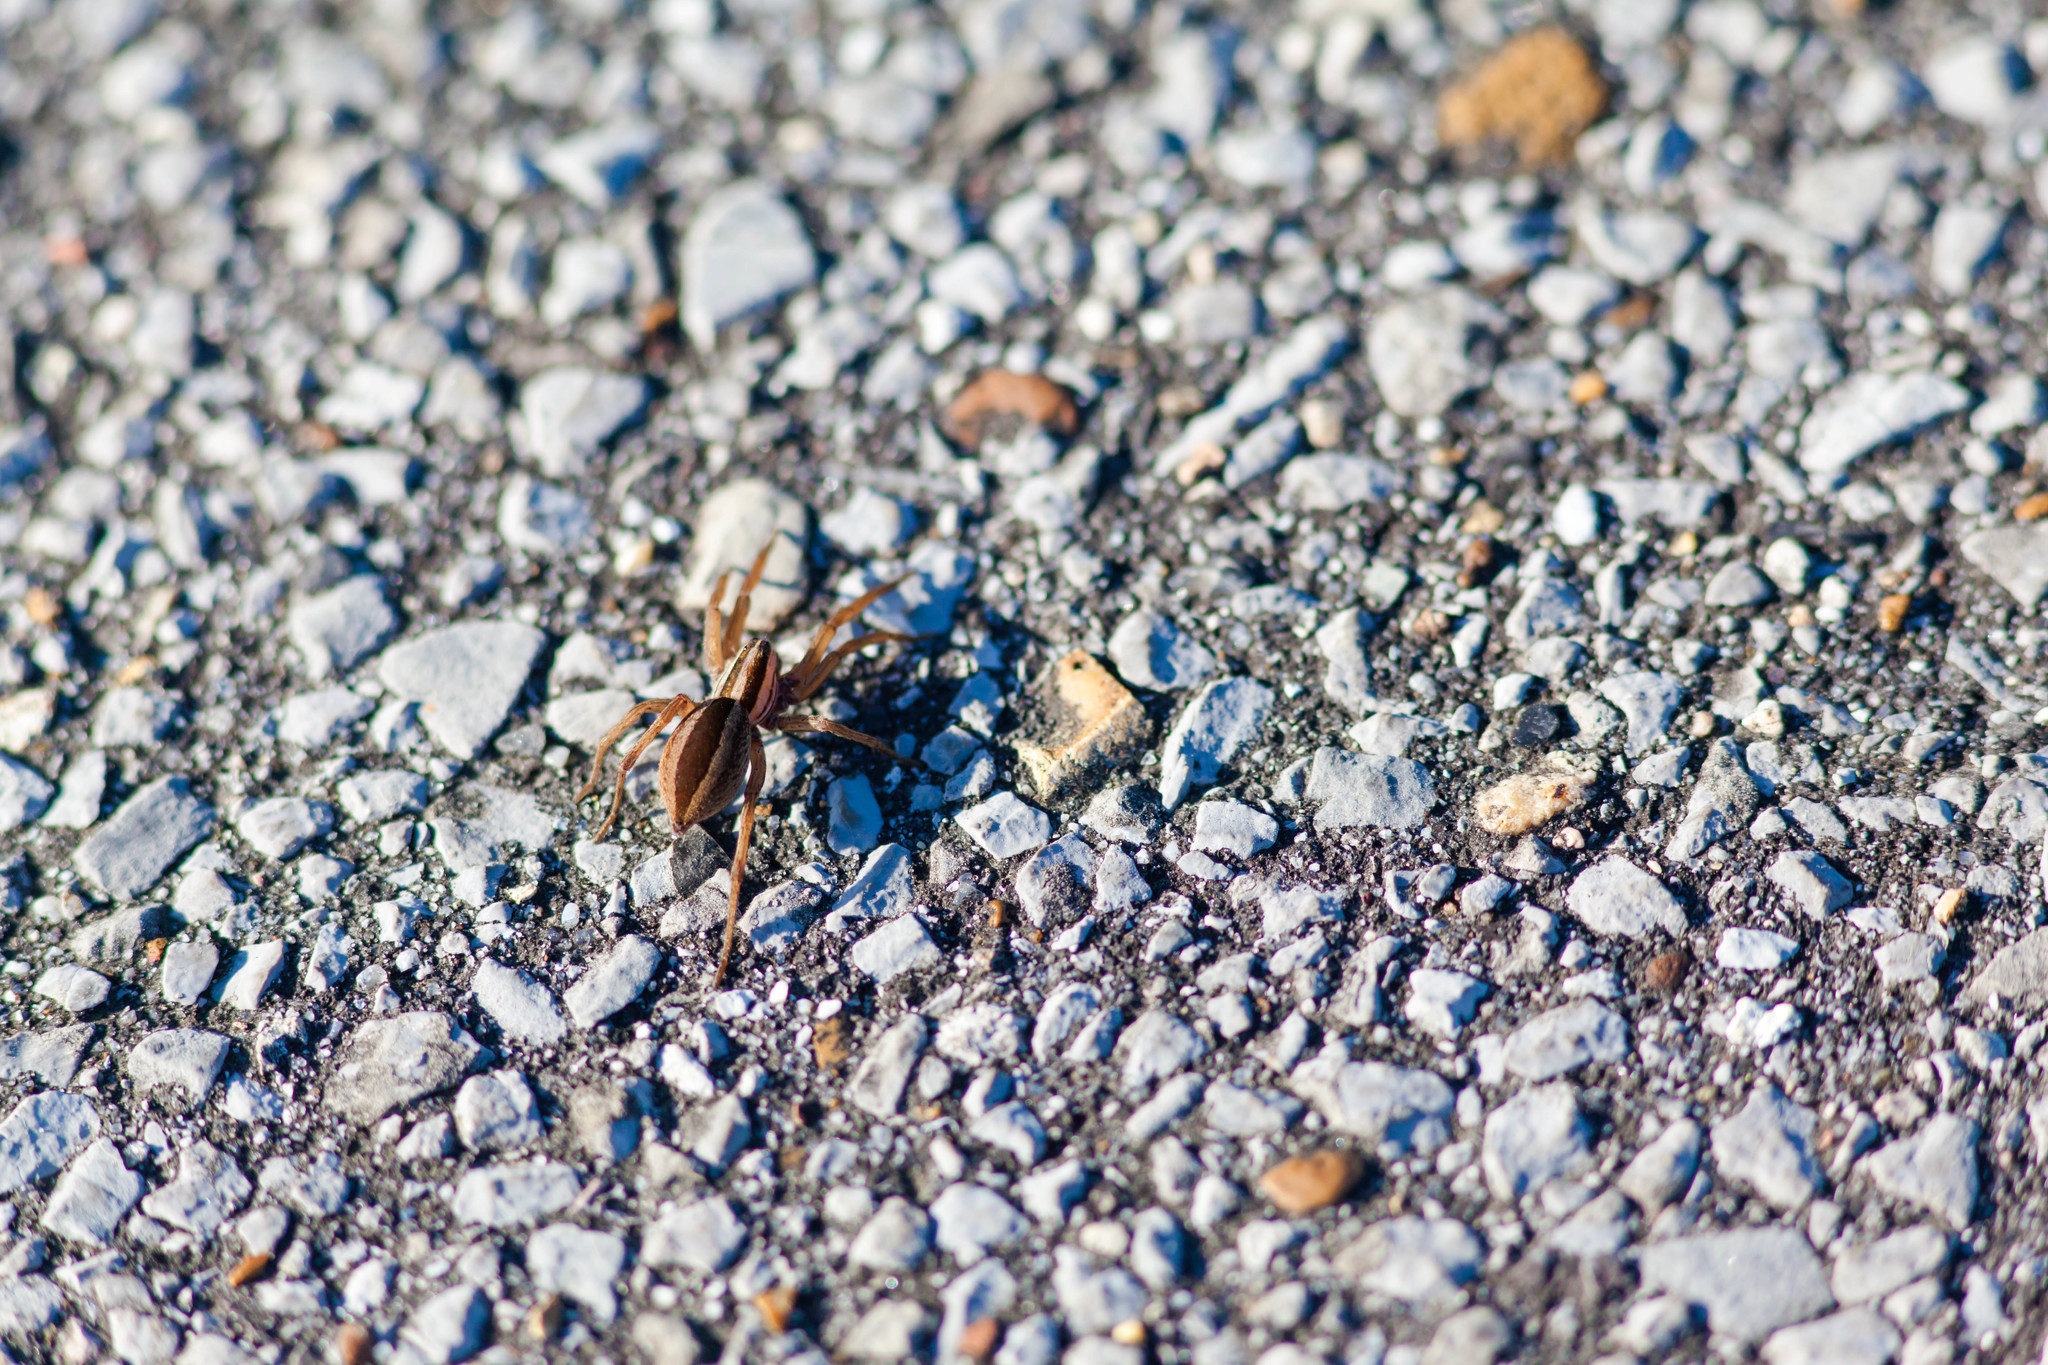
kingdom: Animalia
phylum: Arthropoda
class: Arachnida
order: Araneae
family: Lycosidae
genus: Rabidosa
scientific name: Rabidosa punctulata
